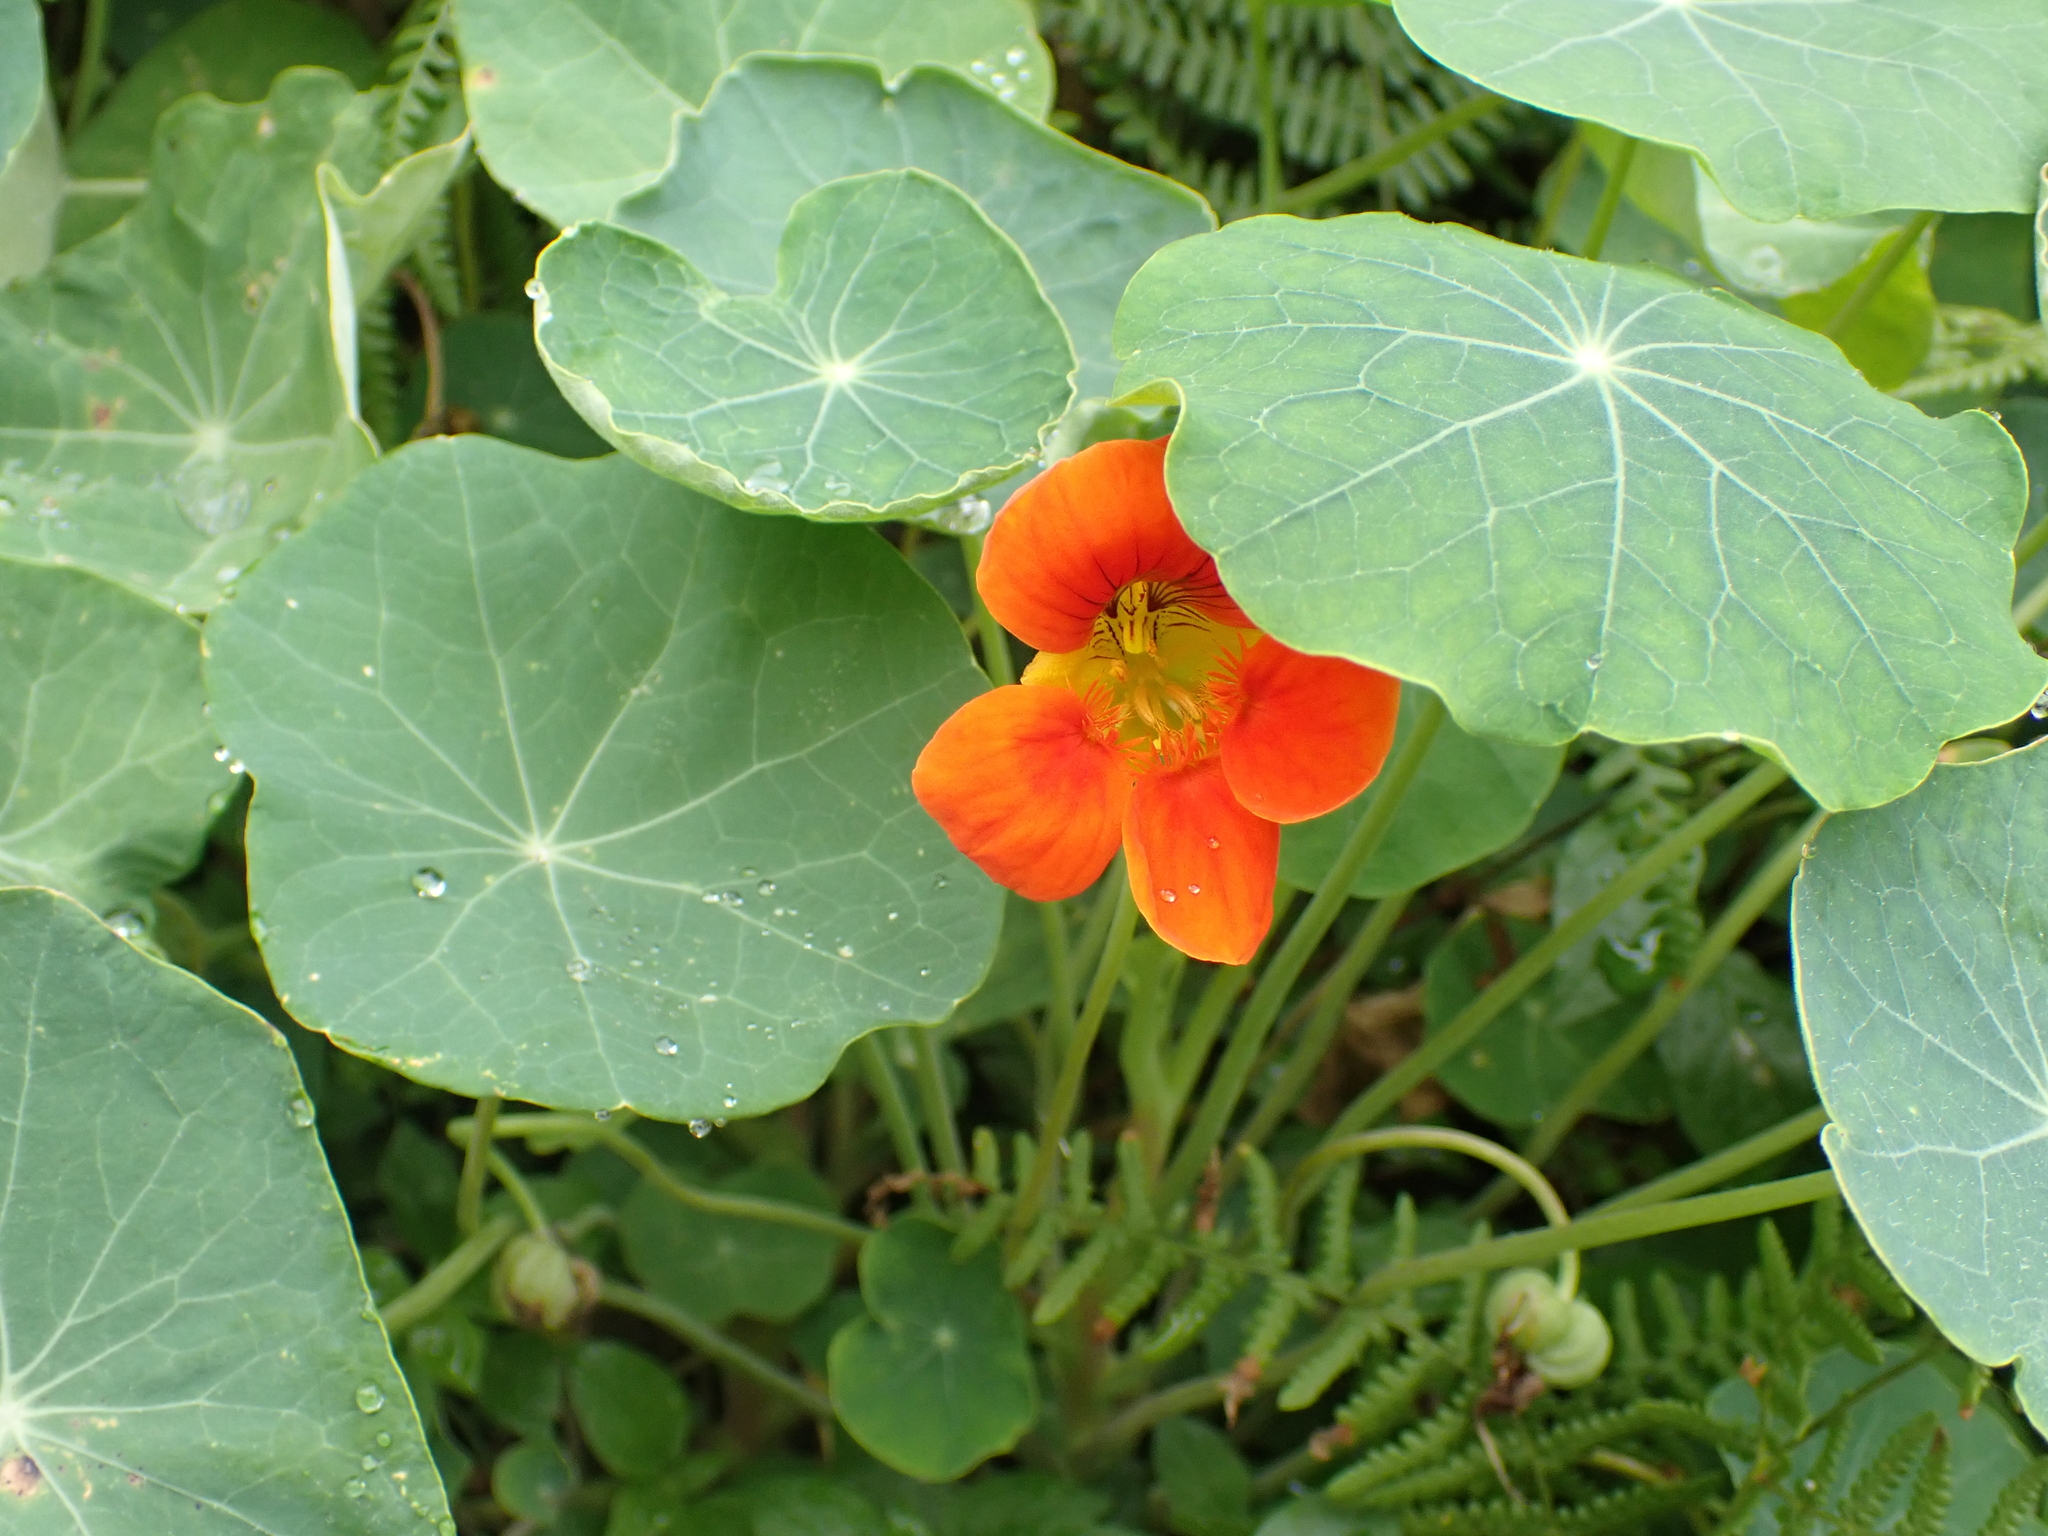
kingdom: Plantae
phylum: Tracheophyta
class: Magnoliopsida
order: Brassicales
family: Tropaeolaceae
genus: Tropaeolum
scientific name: Tropaeolum majus
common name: Nasturtium
